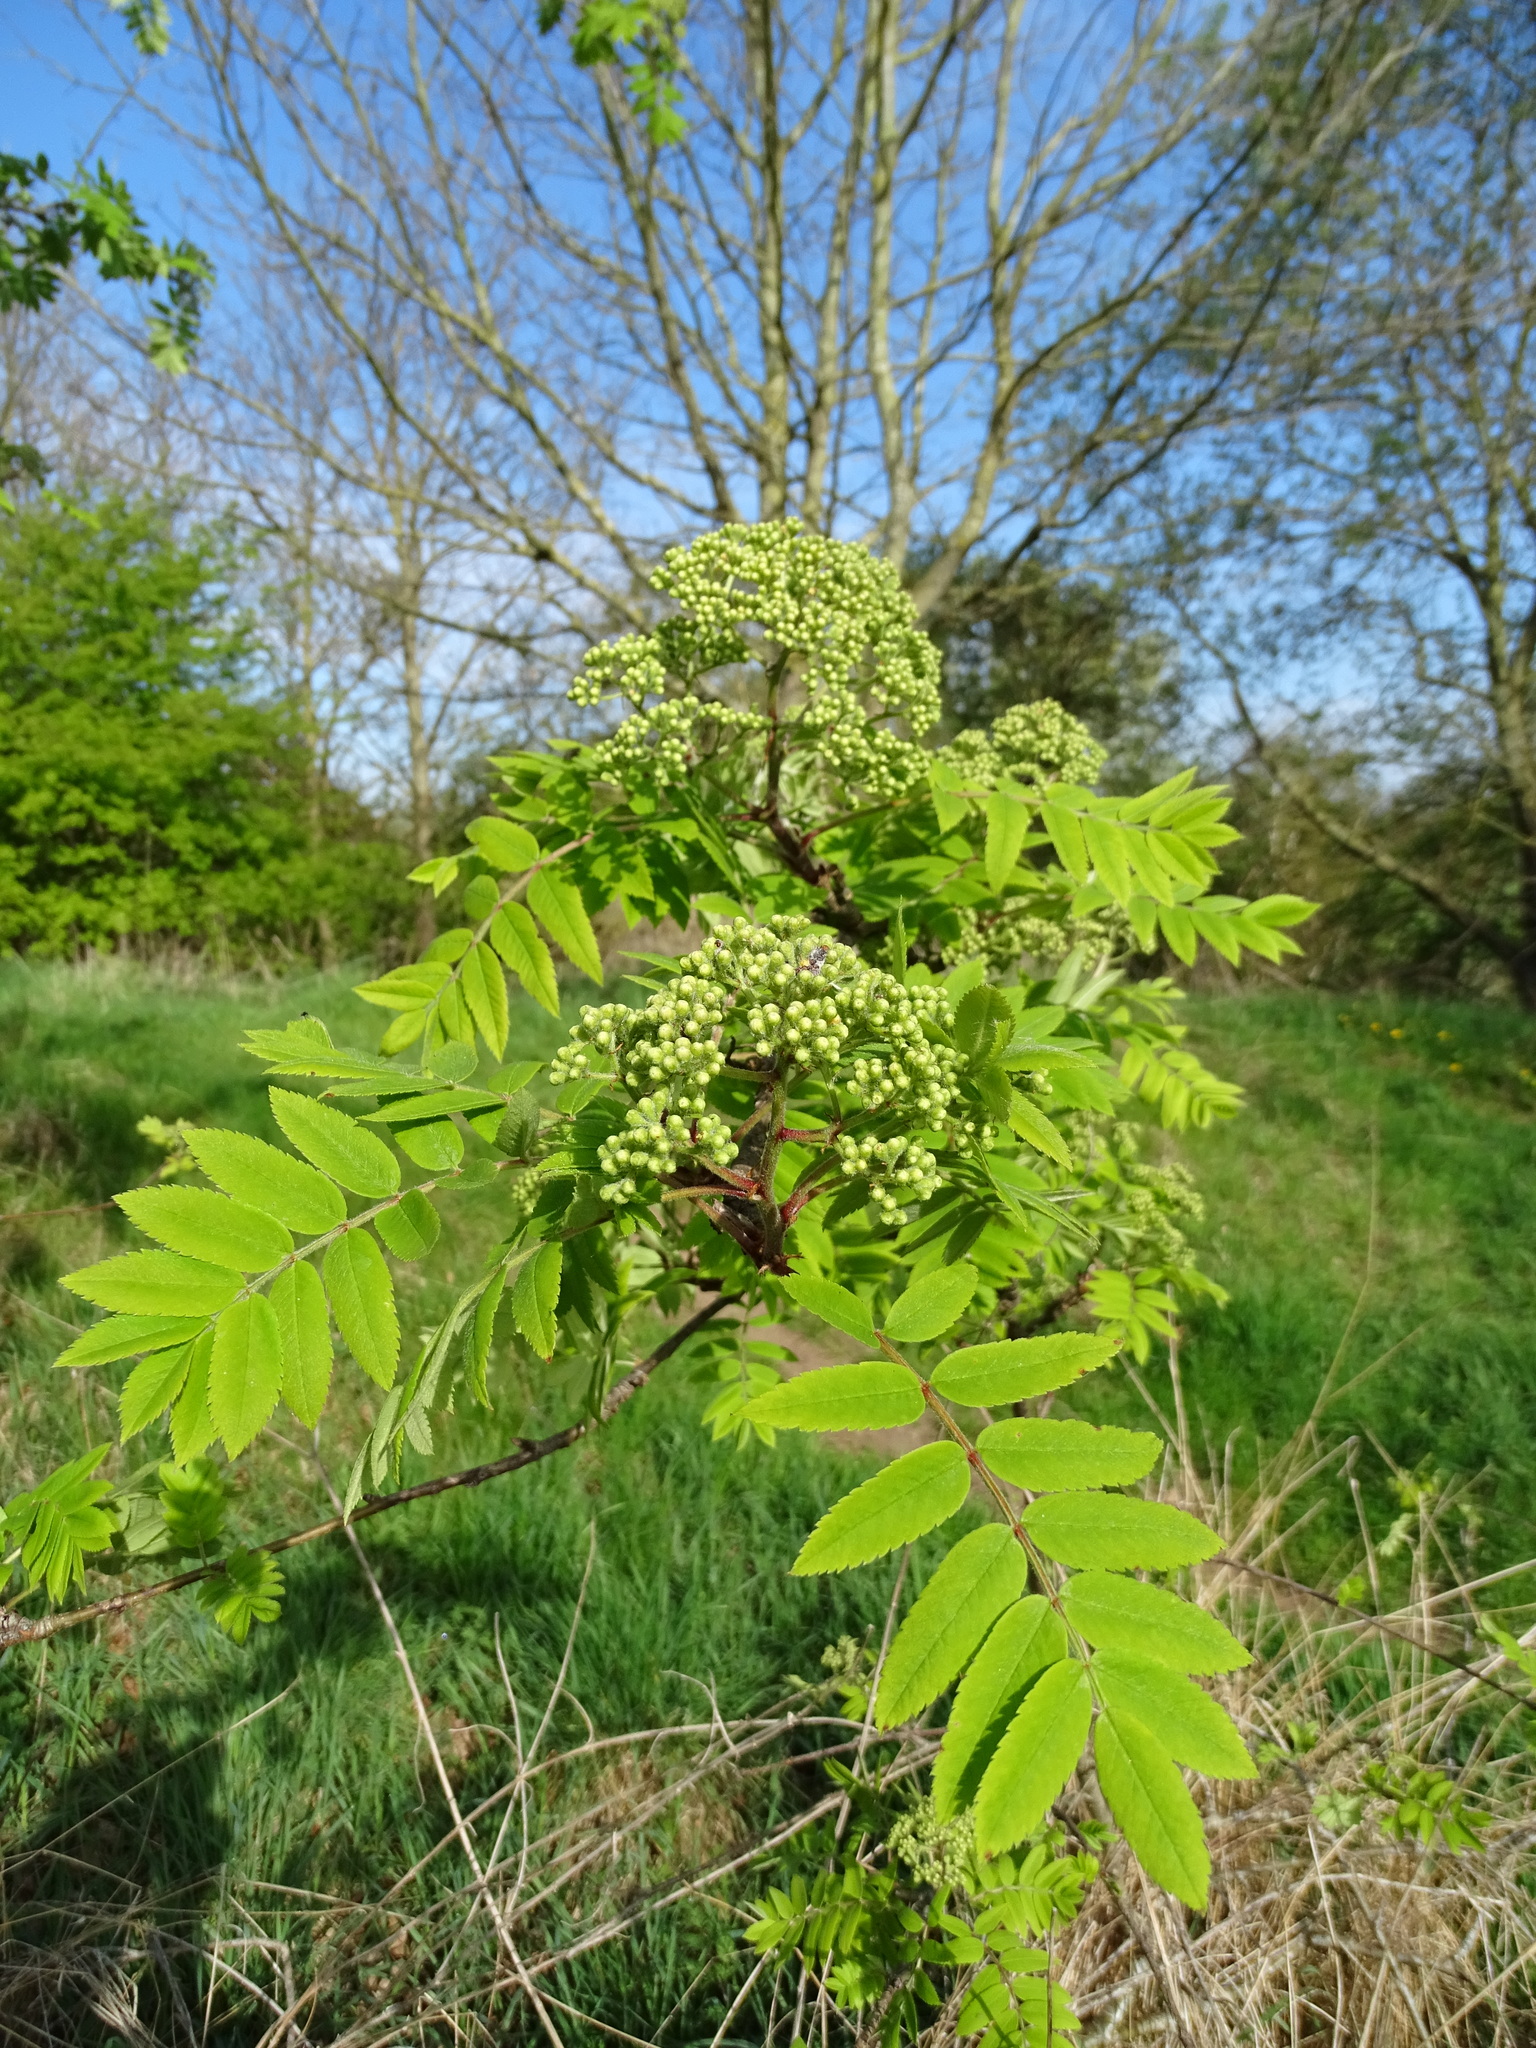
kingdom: Plantae
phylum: Tracheophyta
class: Magnoliopsida
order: Rosales
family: Rosaceae
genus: Sorbus
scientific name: Sorbus aucuparia
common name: Rowan
